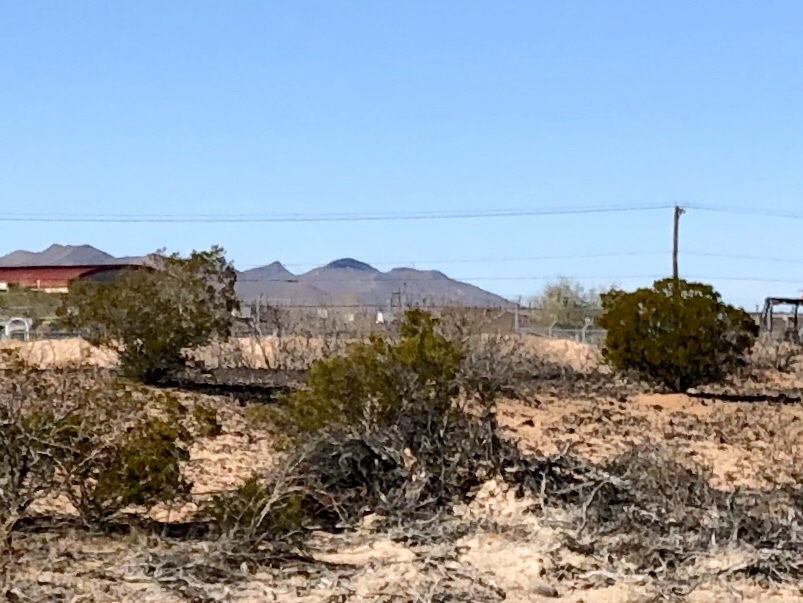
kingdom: Plantae
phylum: Tracheophyta
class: Magnoliopsida
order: Zygophyllales
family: Zygophyllaceae
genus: Larrea
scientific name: Larrea tridentata
